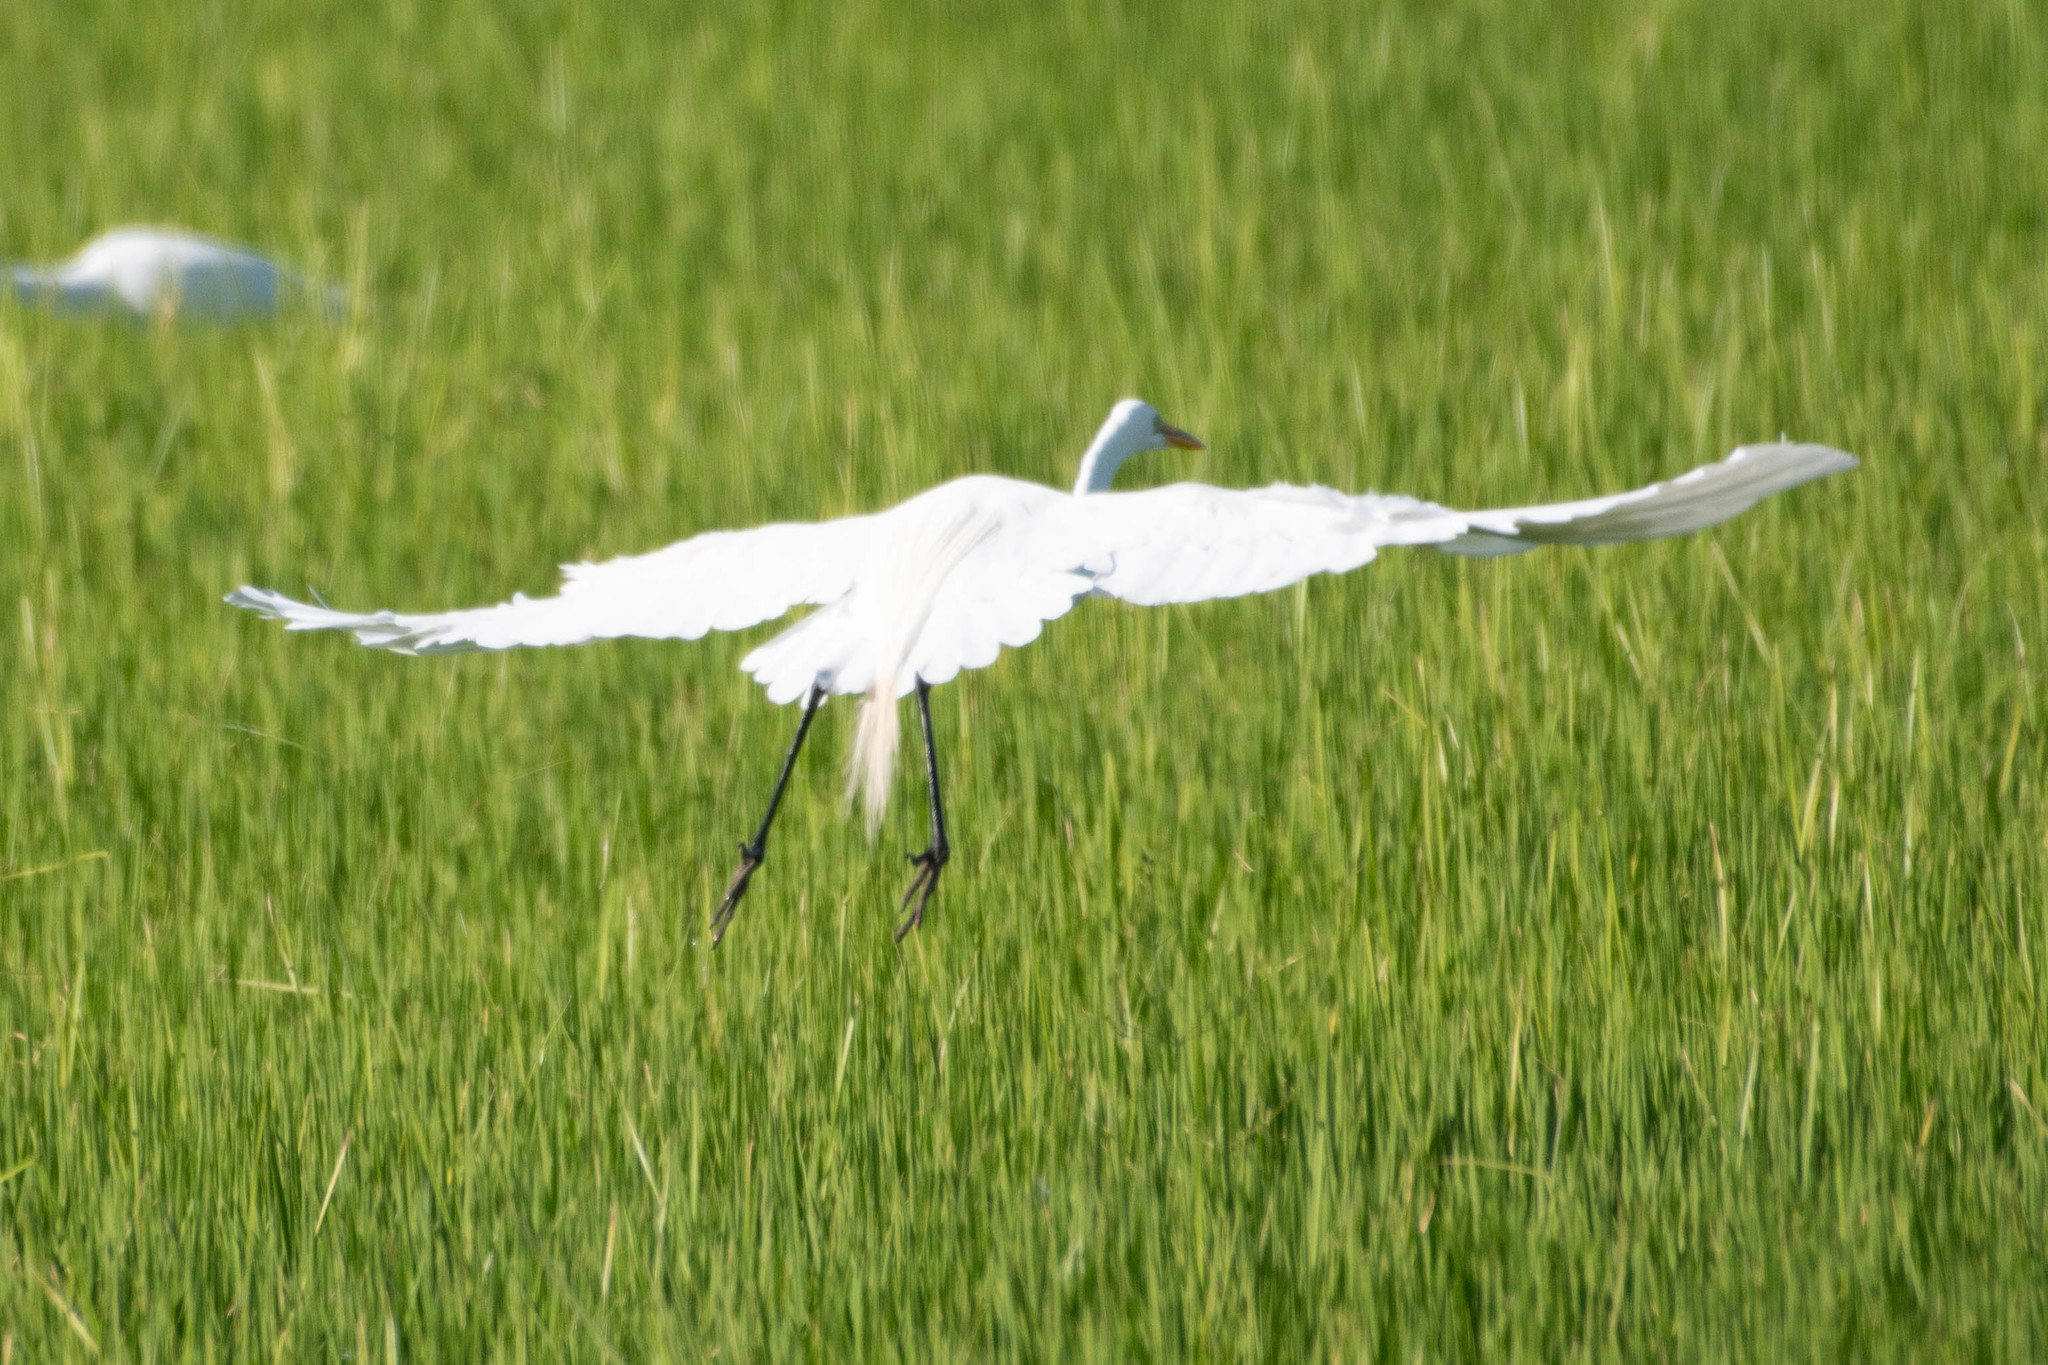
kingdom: Animalia
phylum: Chordata
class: Aves
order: Pelecaniformes
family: Ardeidae
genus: Ardea
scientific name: Ardea alba
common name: Great egret
